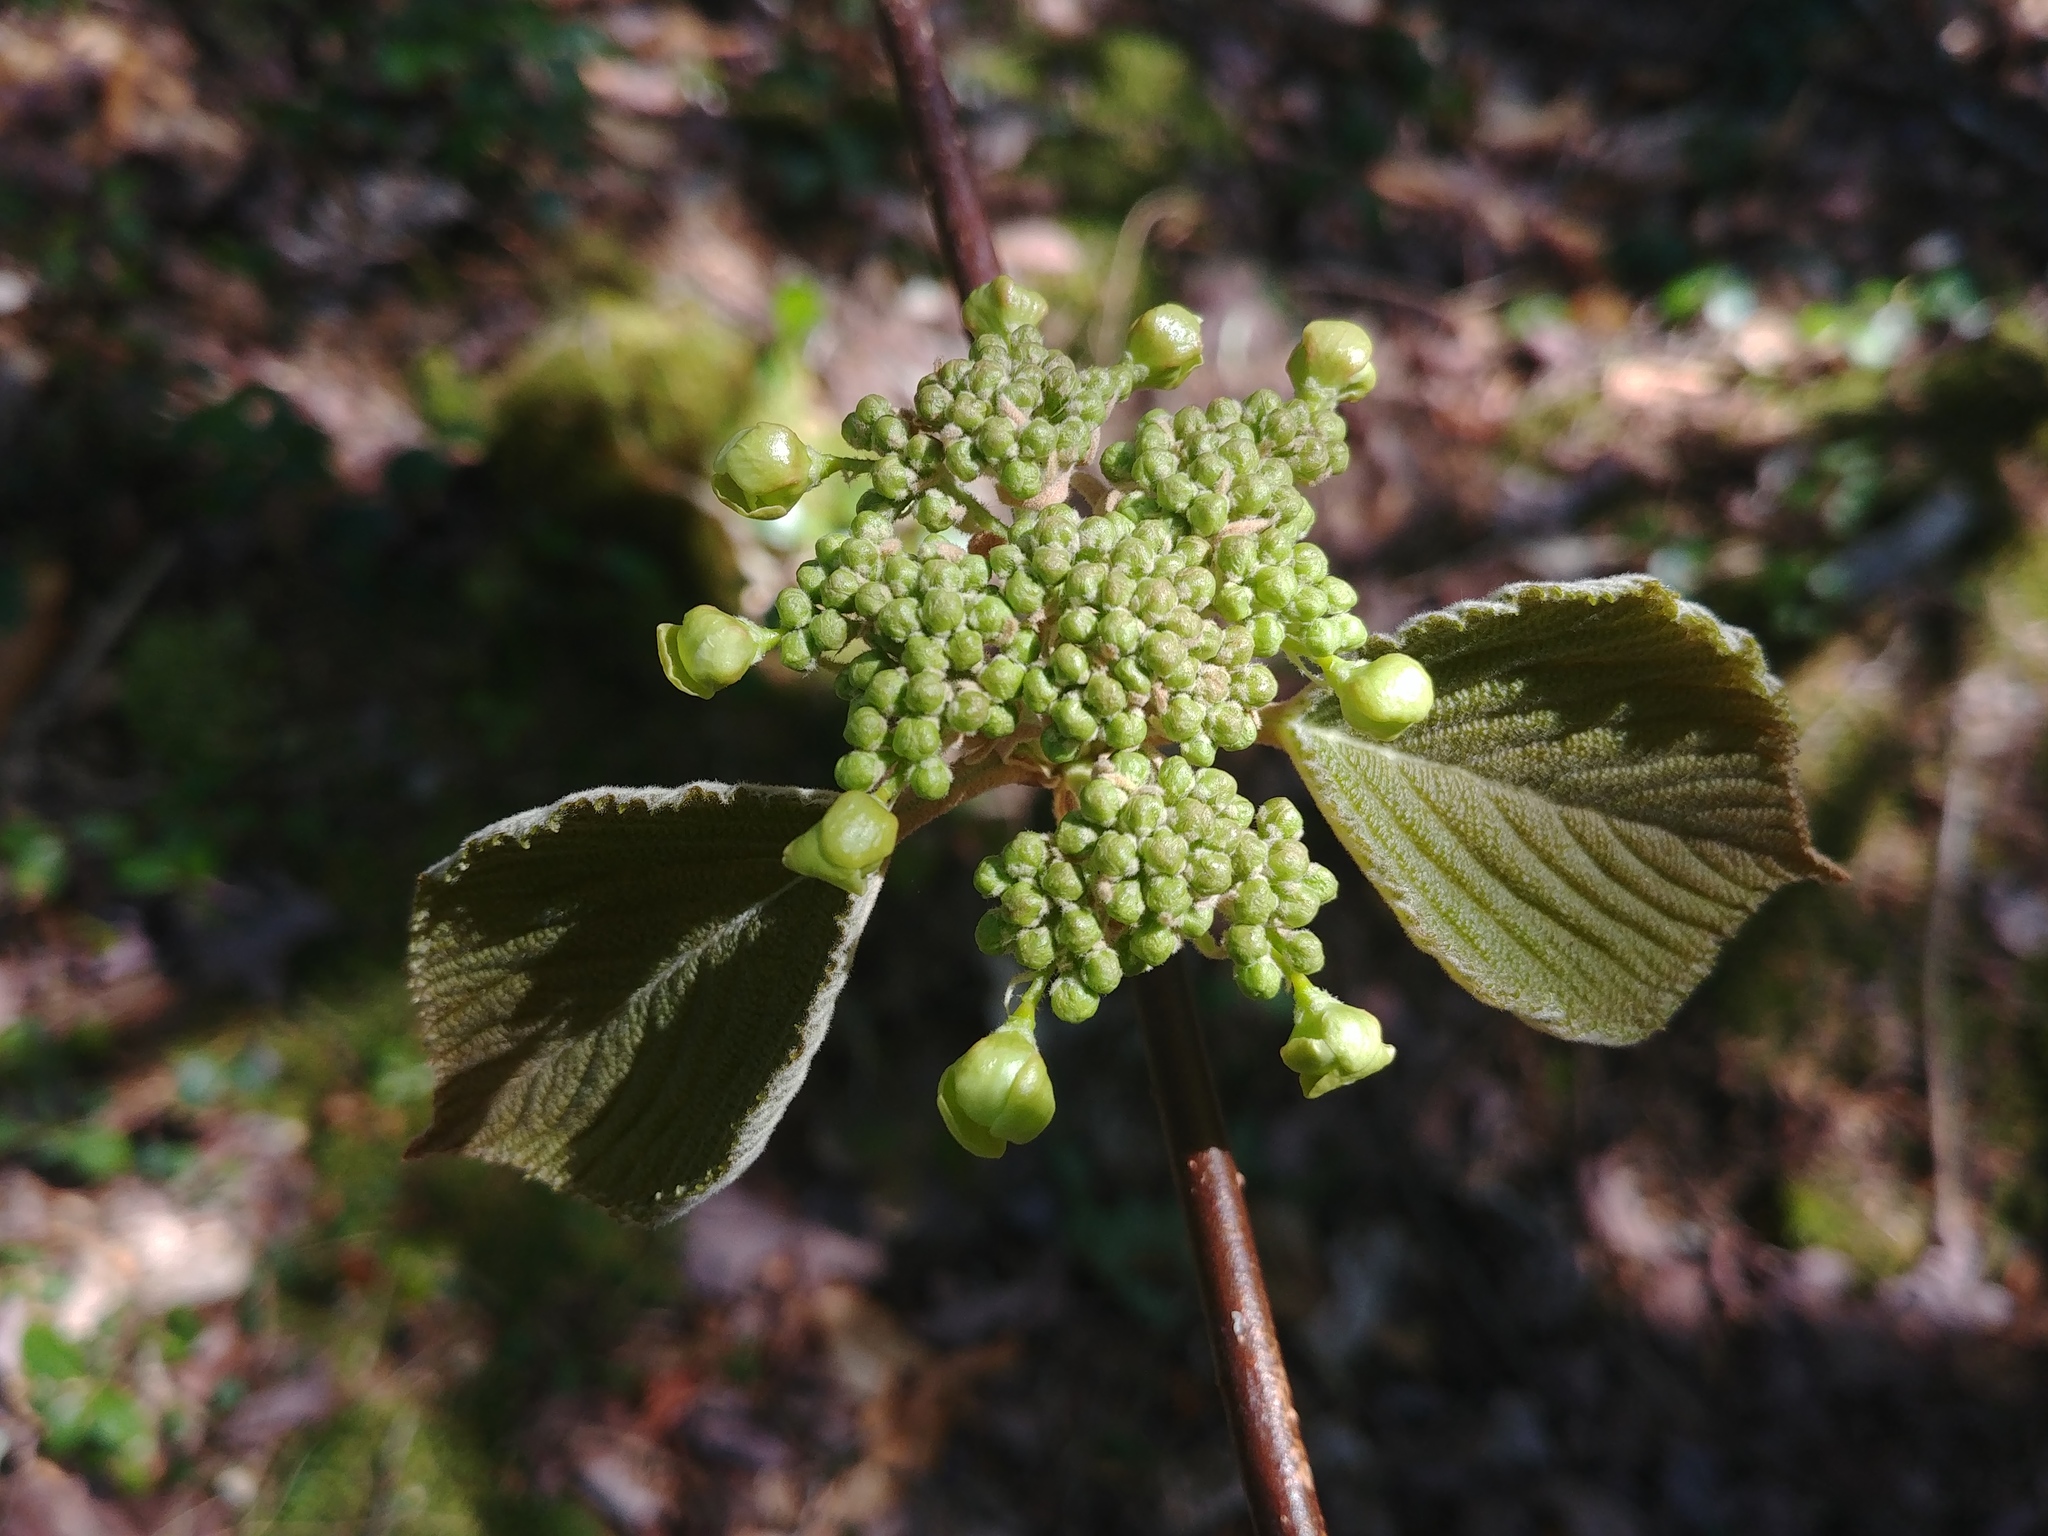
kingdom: Plantae
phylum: Tracheophyta
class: Magnoliopsida
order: Dipsacales
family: Viburnaceae
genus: Viburnum
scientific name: Viburnum lantanoides
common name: Hobblebush
